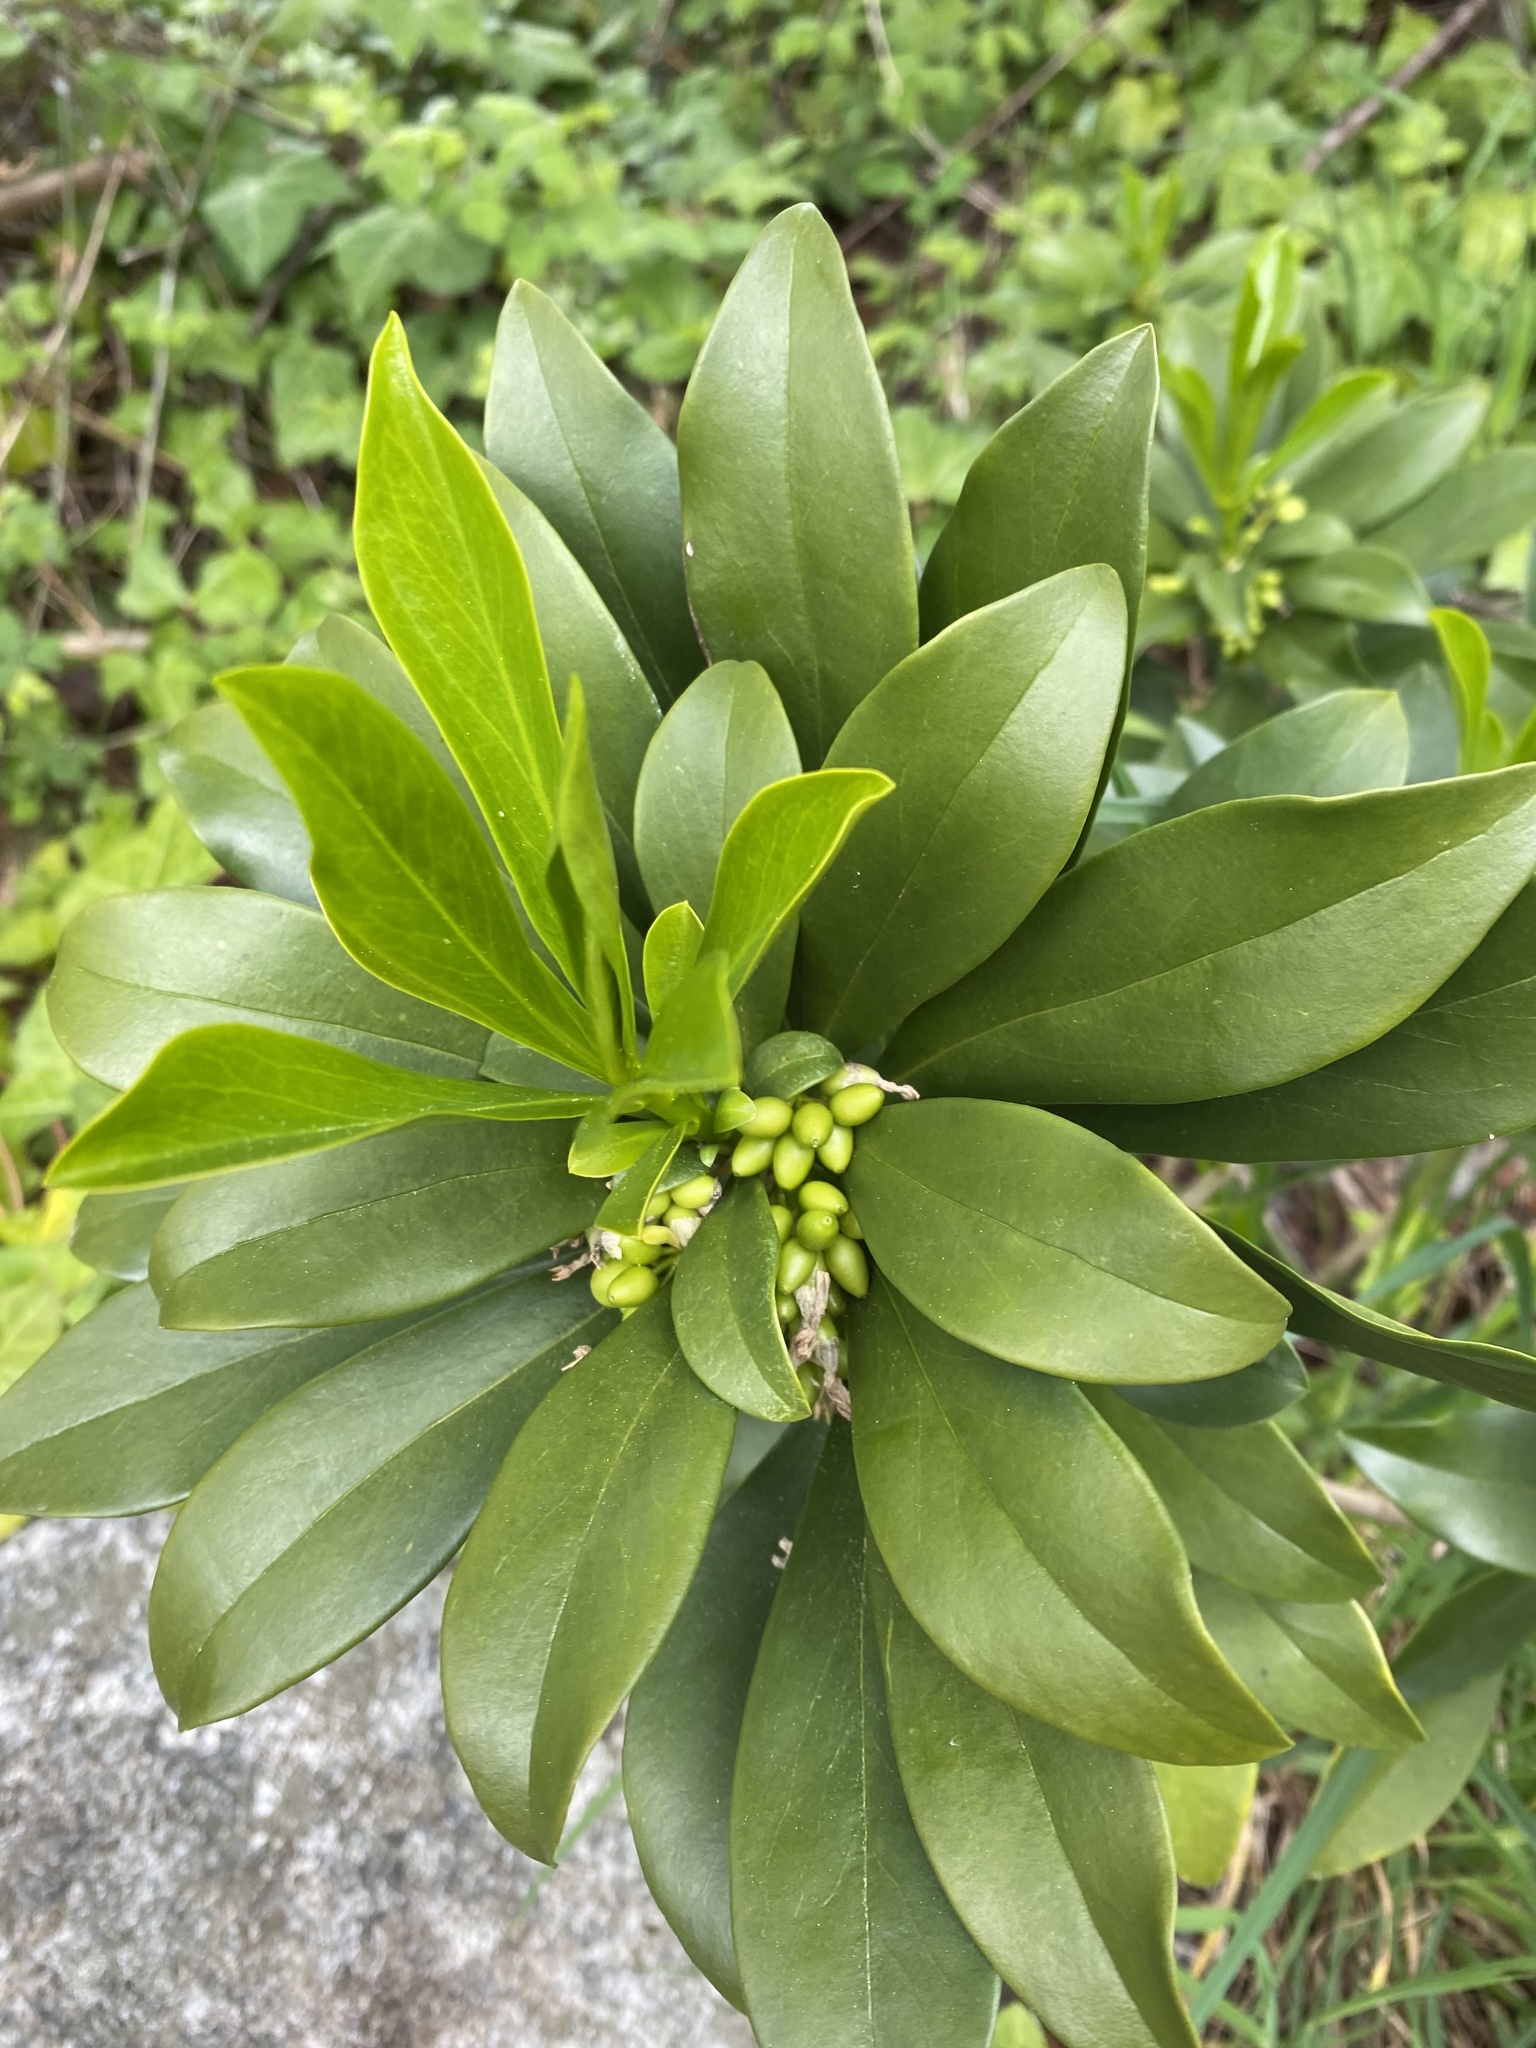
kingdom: Plantae
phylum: Tracheophyta
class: Magnoliopsida
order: Malvales
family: Thymelaeaceae
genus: Daphne
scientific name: Daphne laureola
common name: Spurge-laurel
